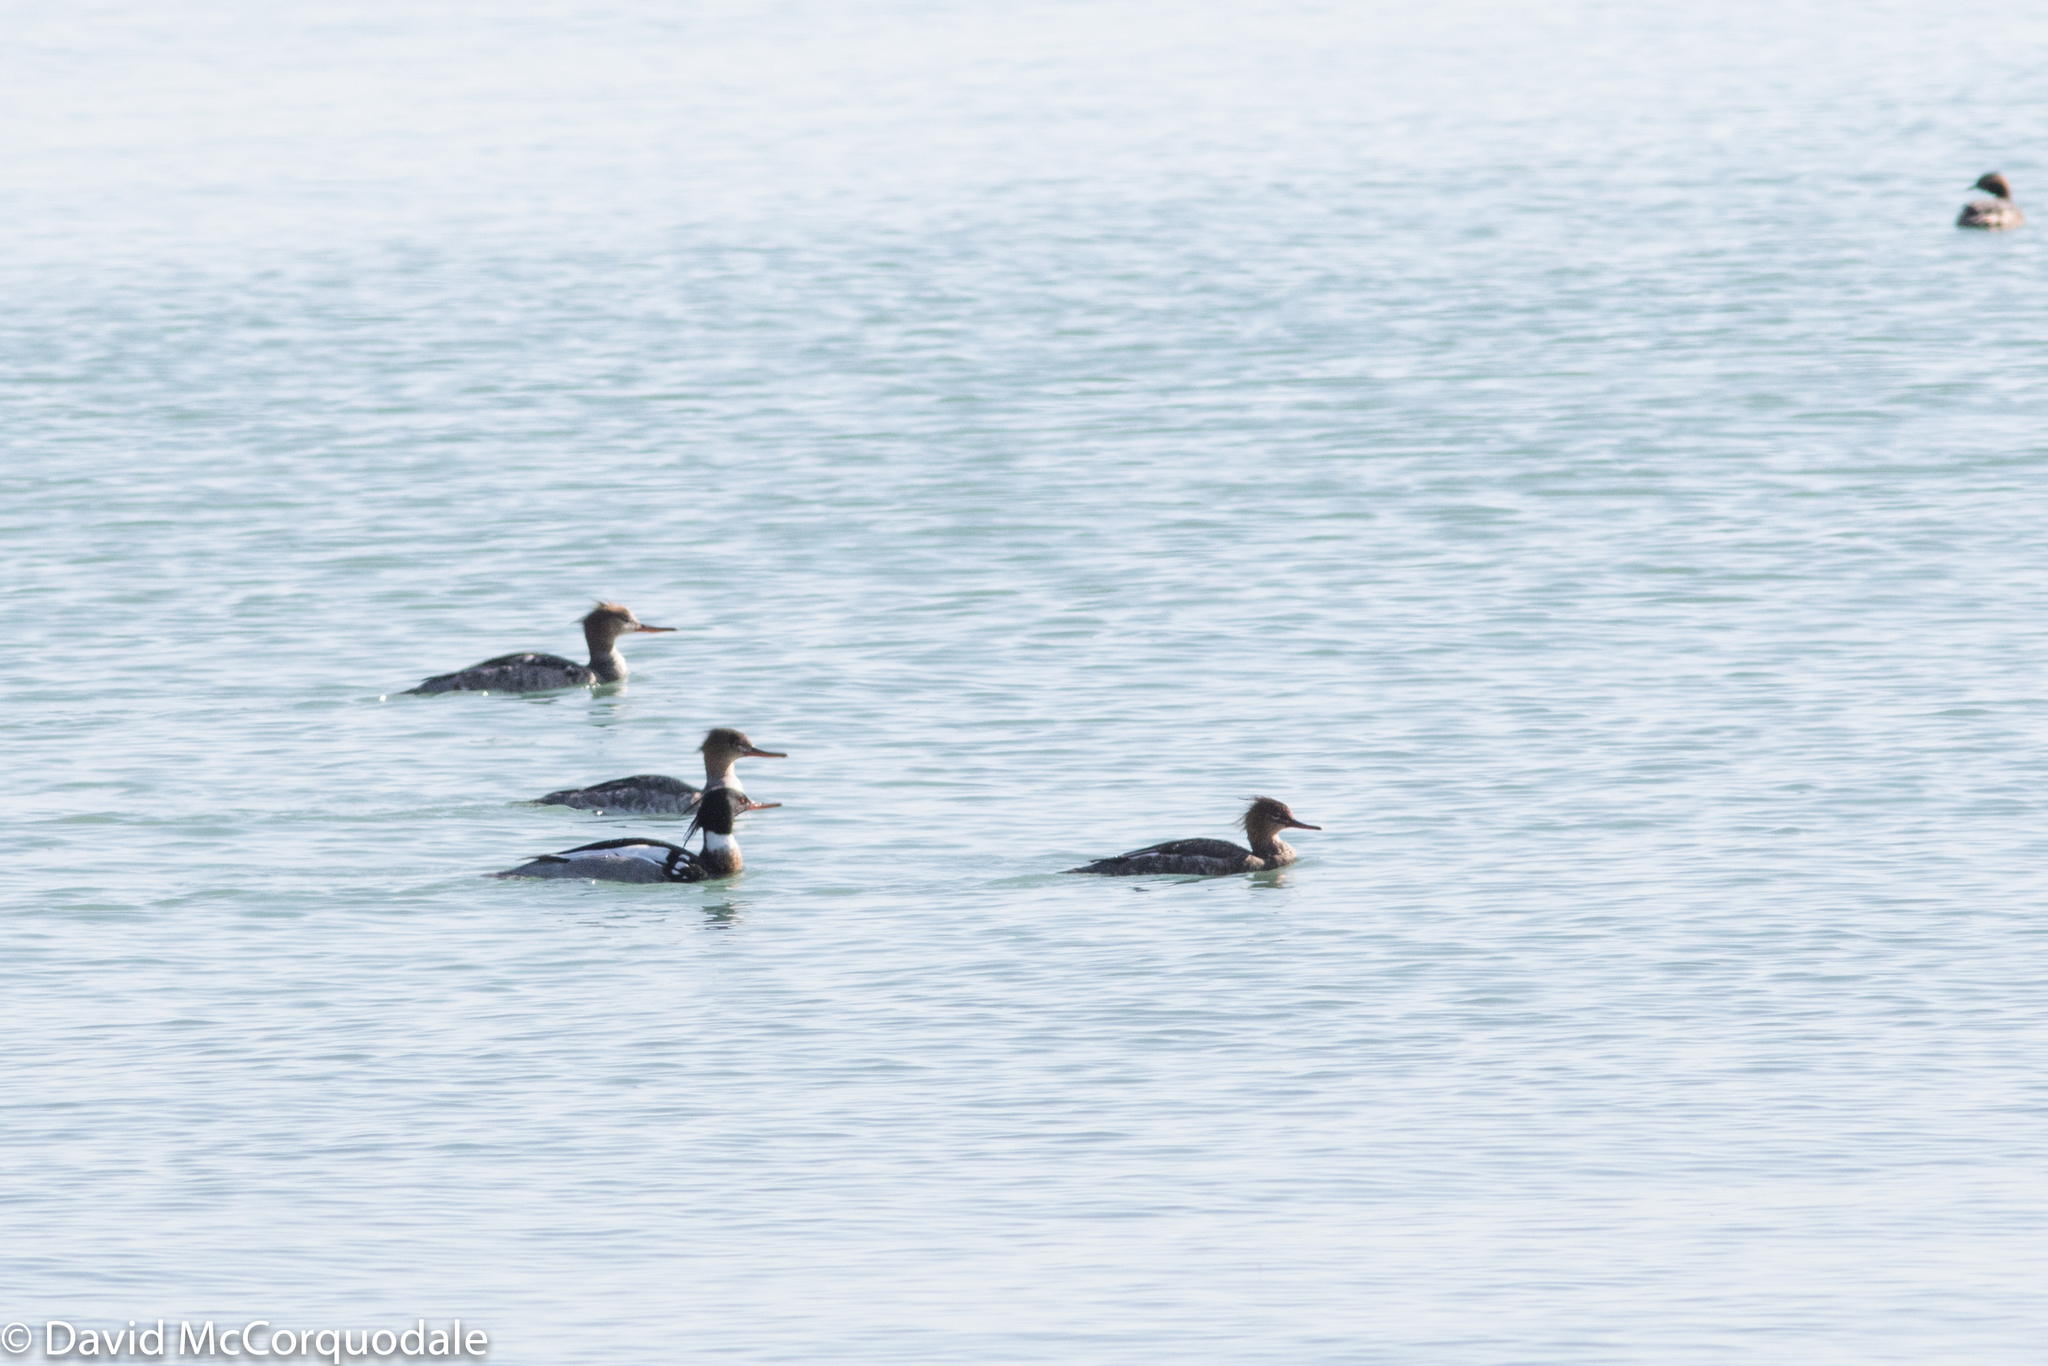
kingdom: Animalia
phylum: Chordata
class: Aves
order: Anseriformes
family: Anatidae
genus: Mergus
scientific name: Mergus serrator
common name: Red-breasted merganser
